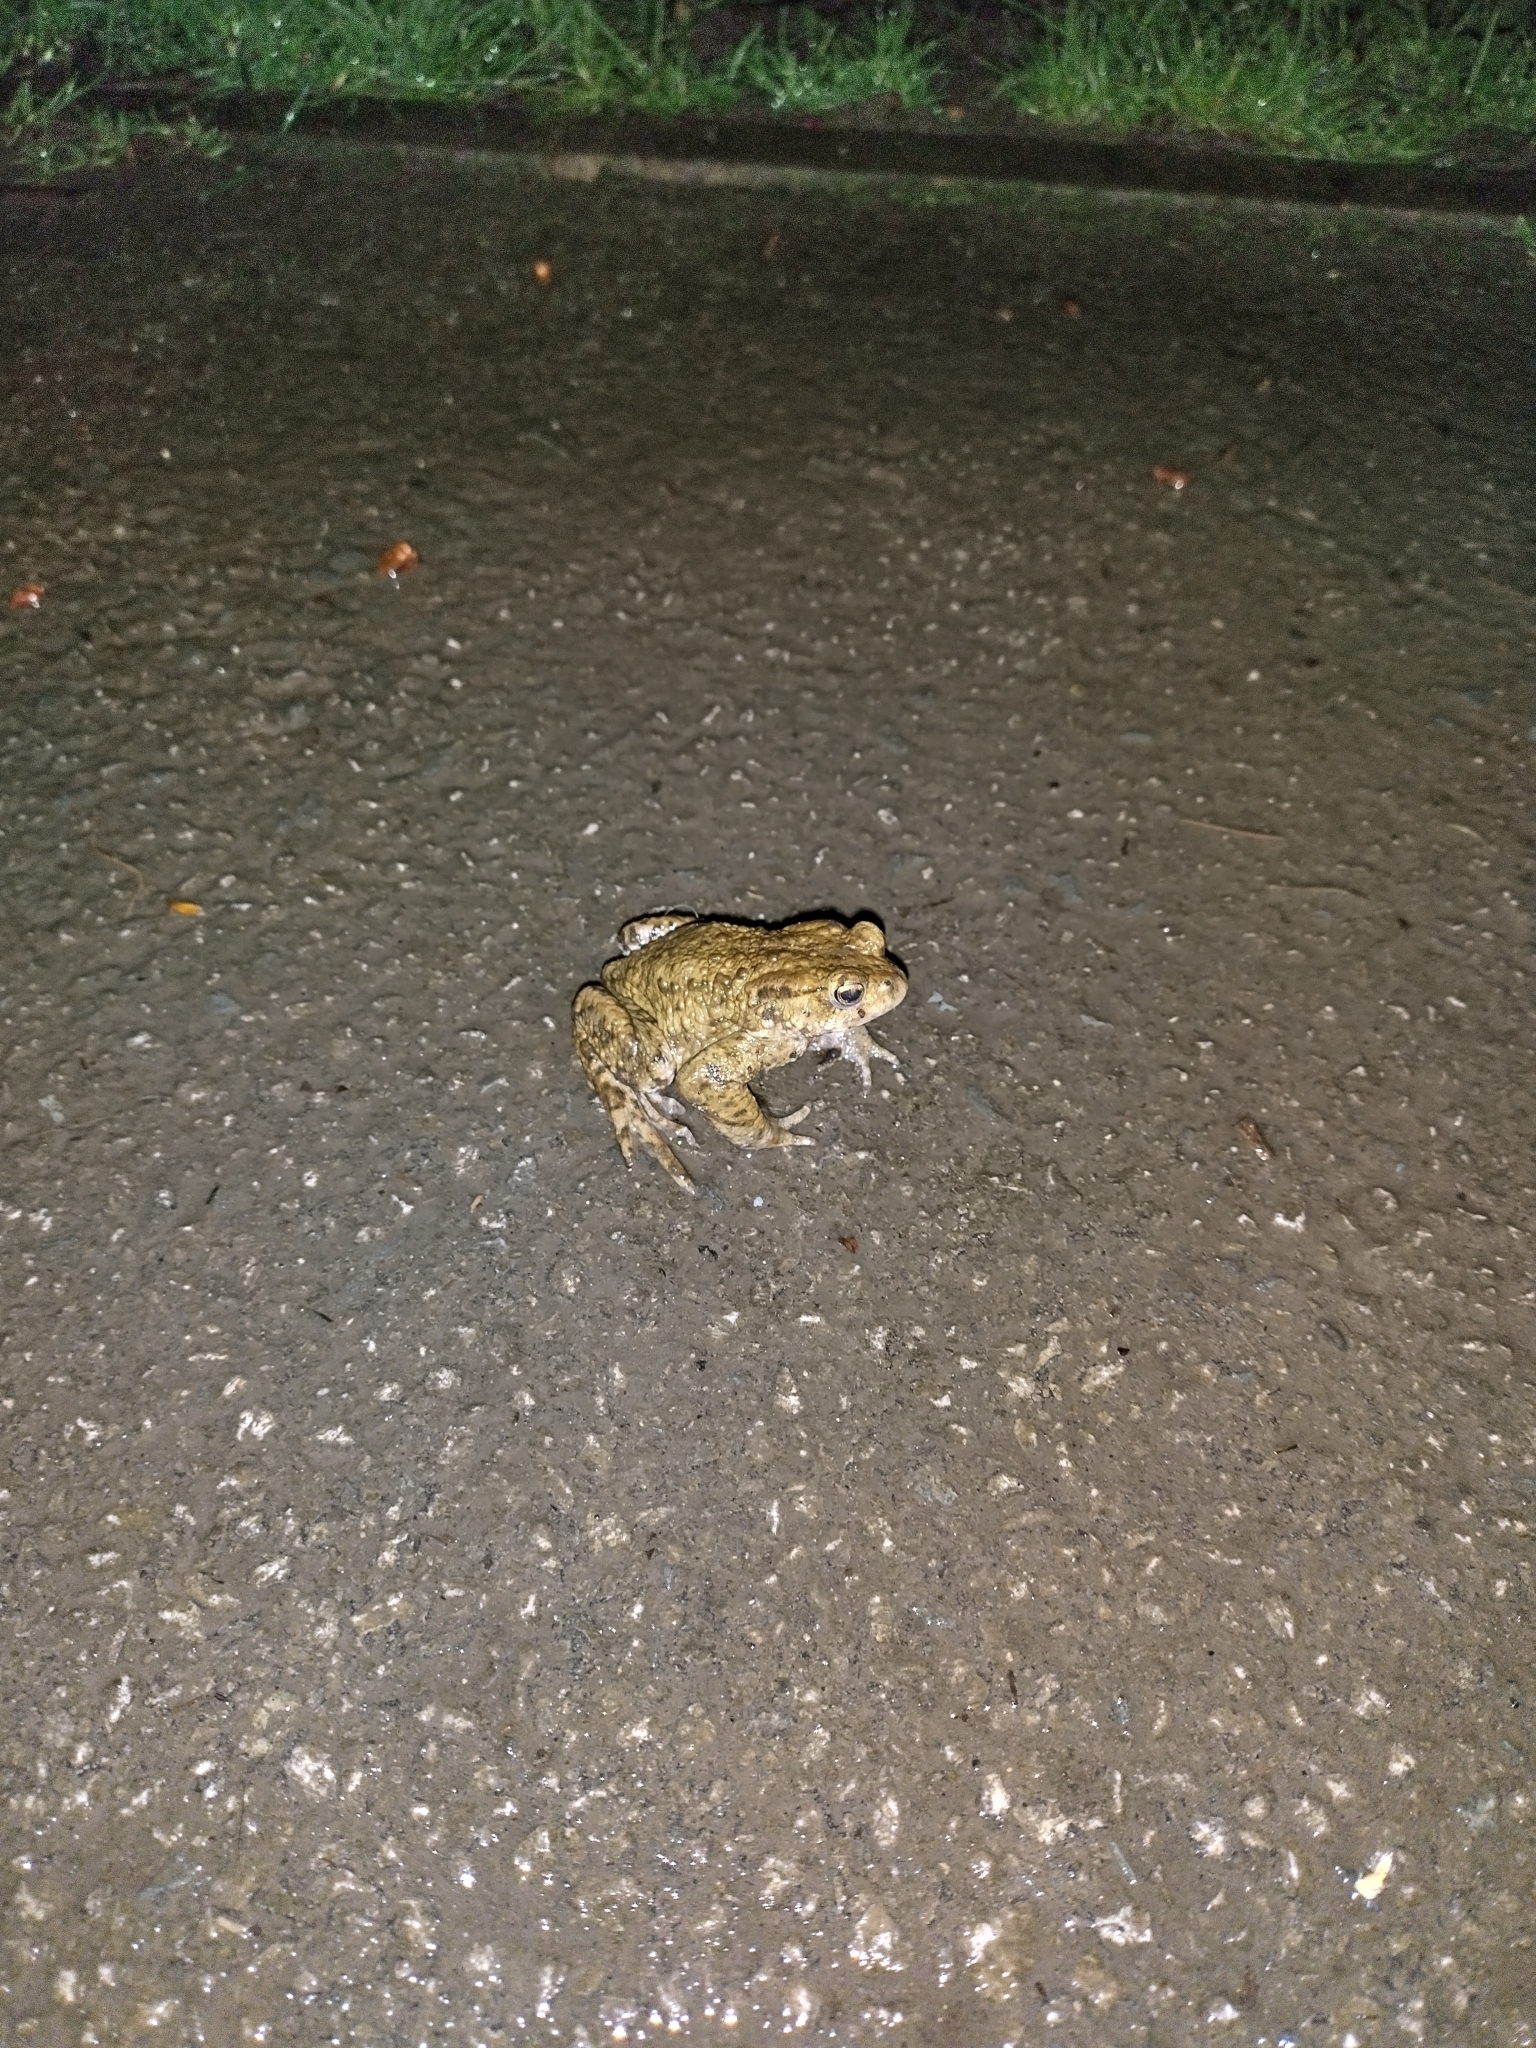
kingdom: Animalia
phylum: Chordata
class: Amphibia
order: Anura
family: Bufonidae
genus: Bufo
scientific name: Bufo bufo
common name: Common toad
